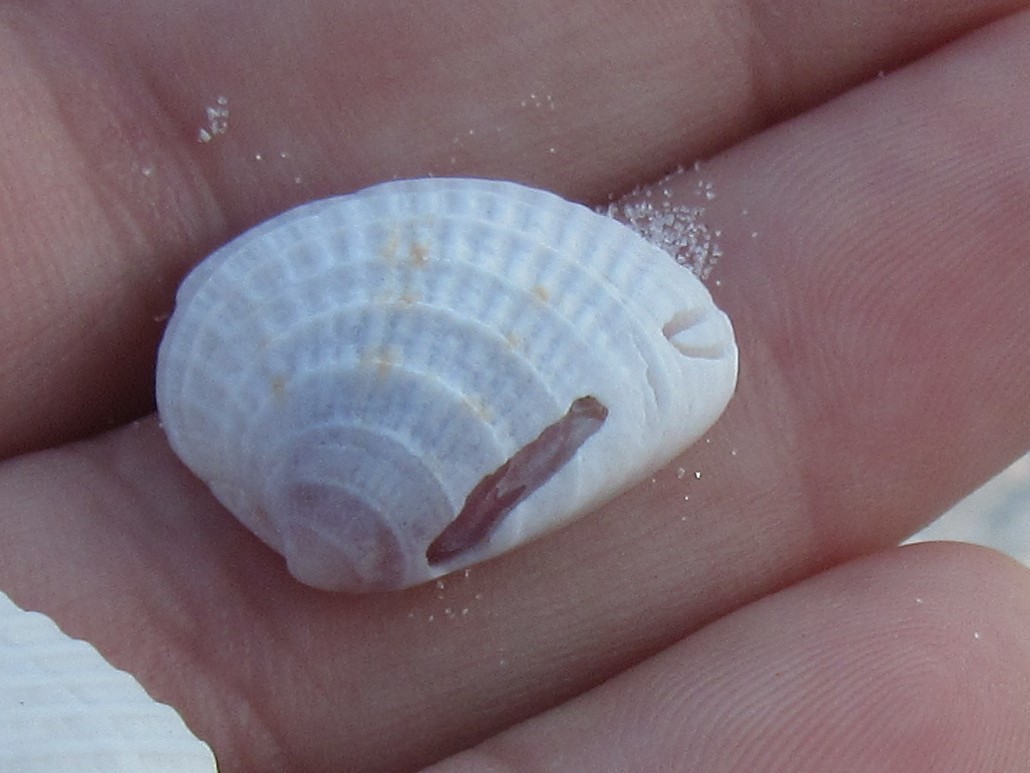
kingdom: Animalia
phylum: Mollusca
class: Bivalvia
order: Venerida
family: Veneridae
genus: Chione
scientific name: Chione elevata
